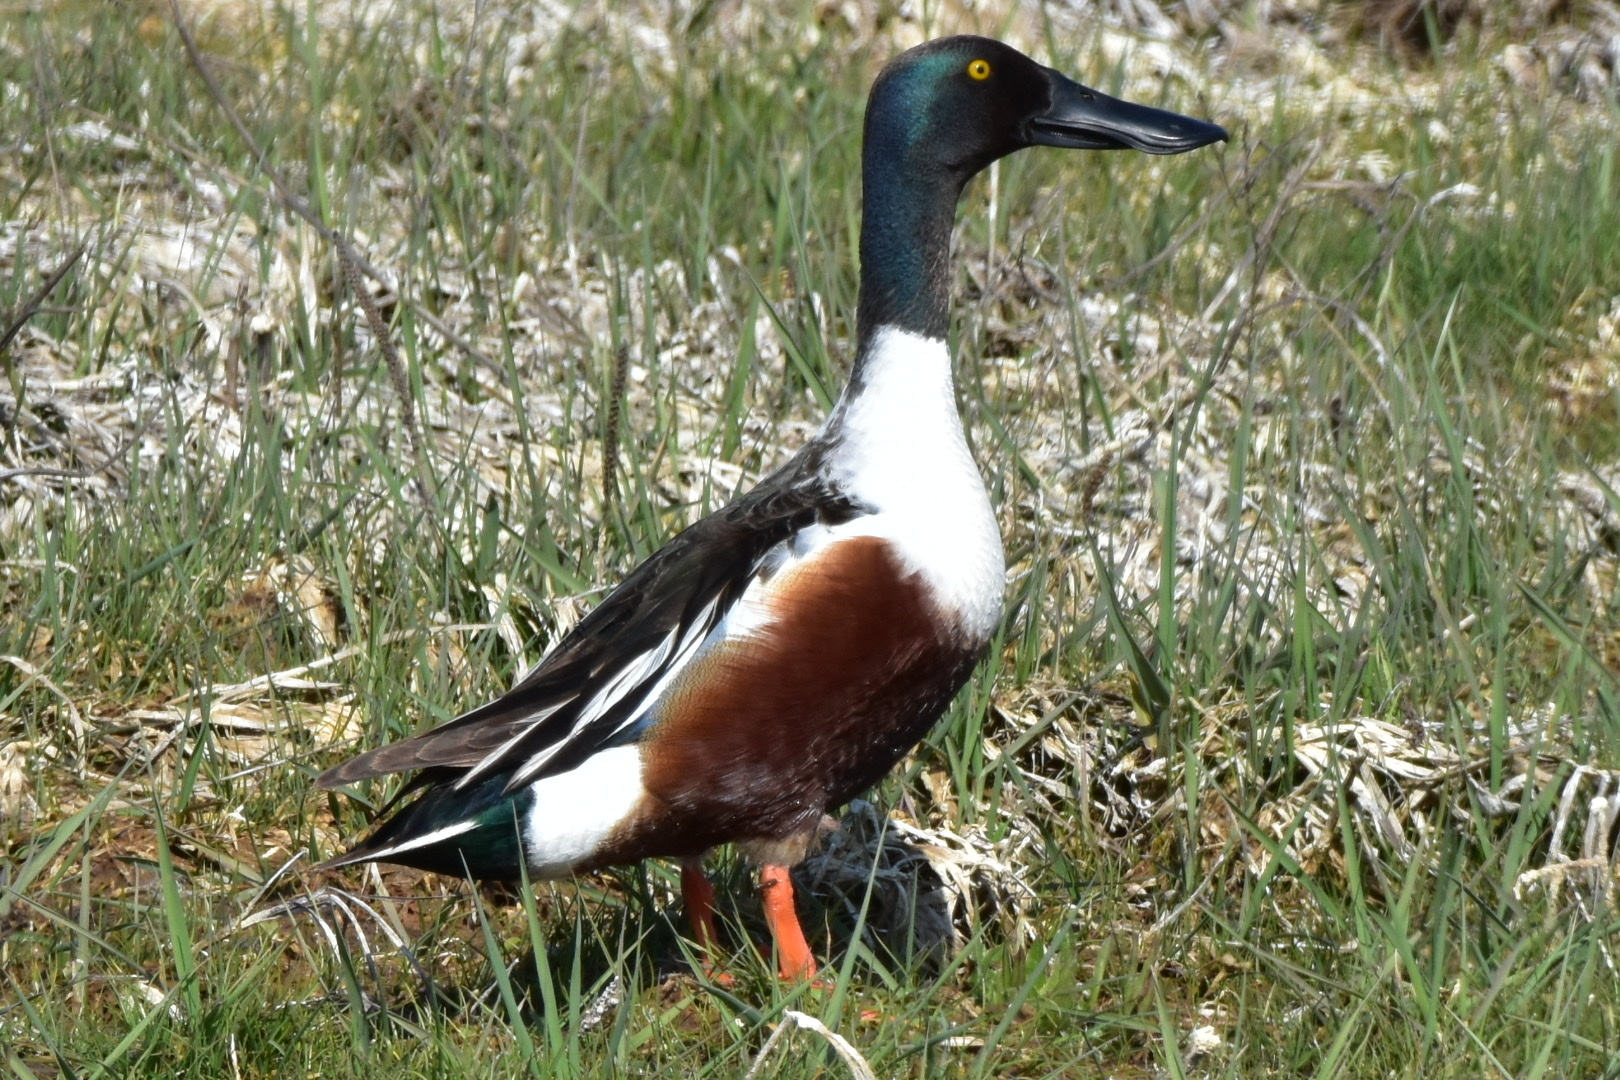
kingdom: Animalia
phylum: Chordata
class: Aves
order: Anseriformes
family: Anatidae
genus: Spatula
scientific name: Spatula clypeata
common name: Northern shoveler
